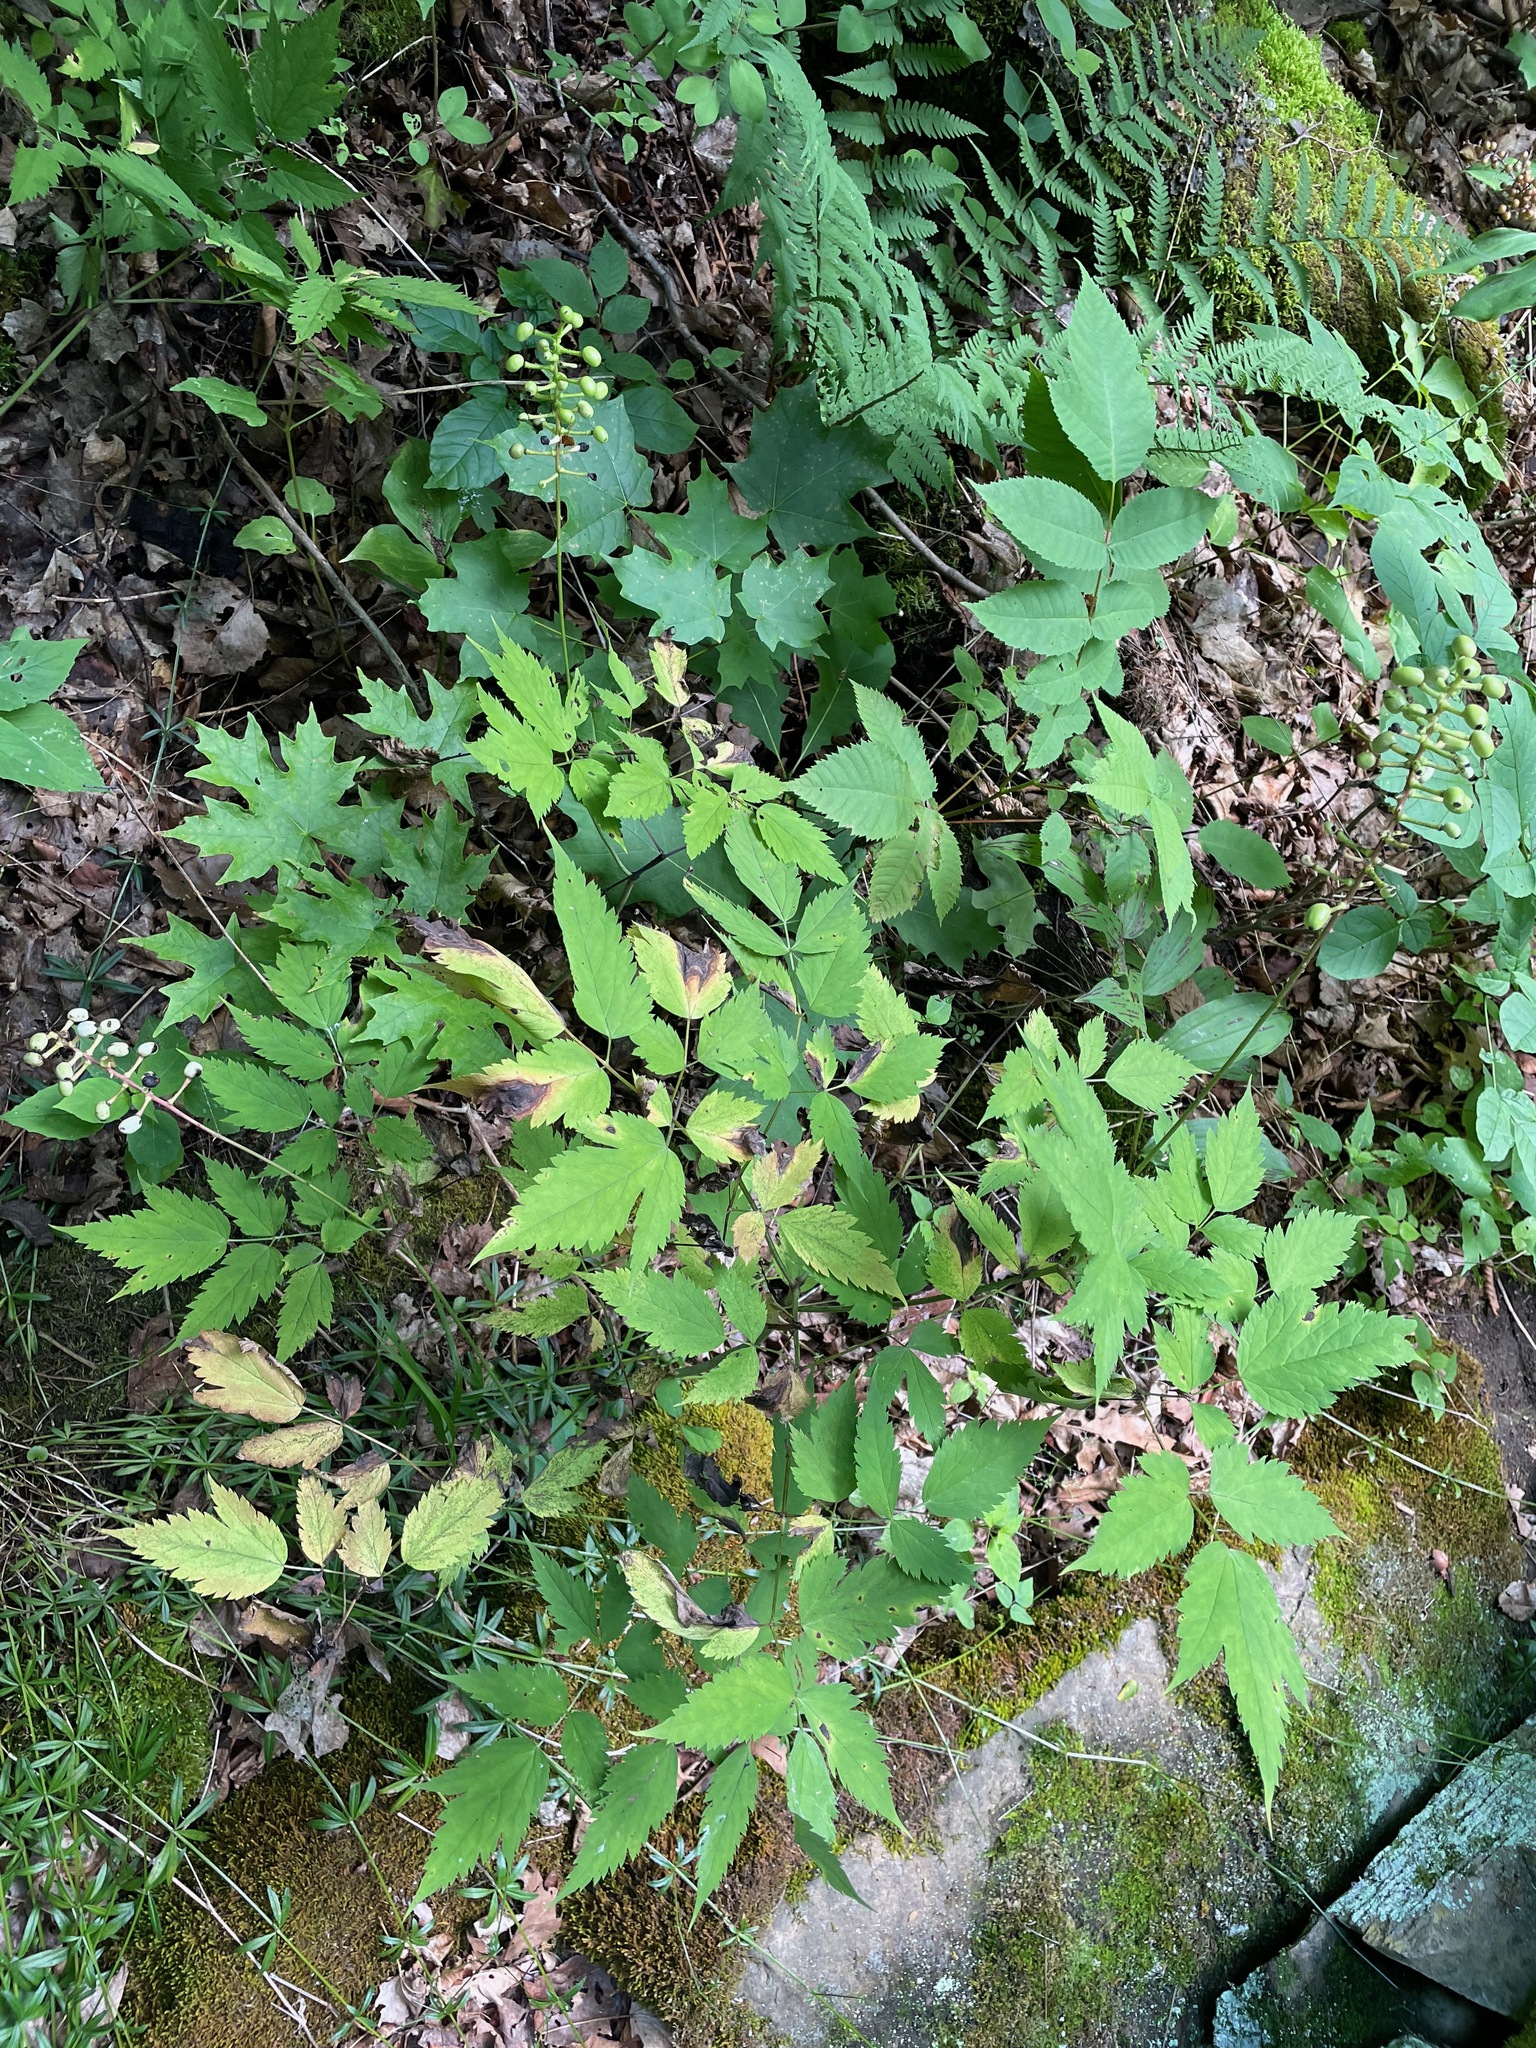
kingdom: Plantae
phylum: Tracheophyta
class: Magnoliopsida
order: Ranunculales
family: Ranunculaceae
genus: Actaea
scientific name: Actaea pachypoda
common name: Doll's-eyes
